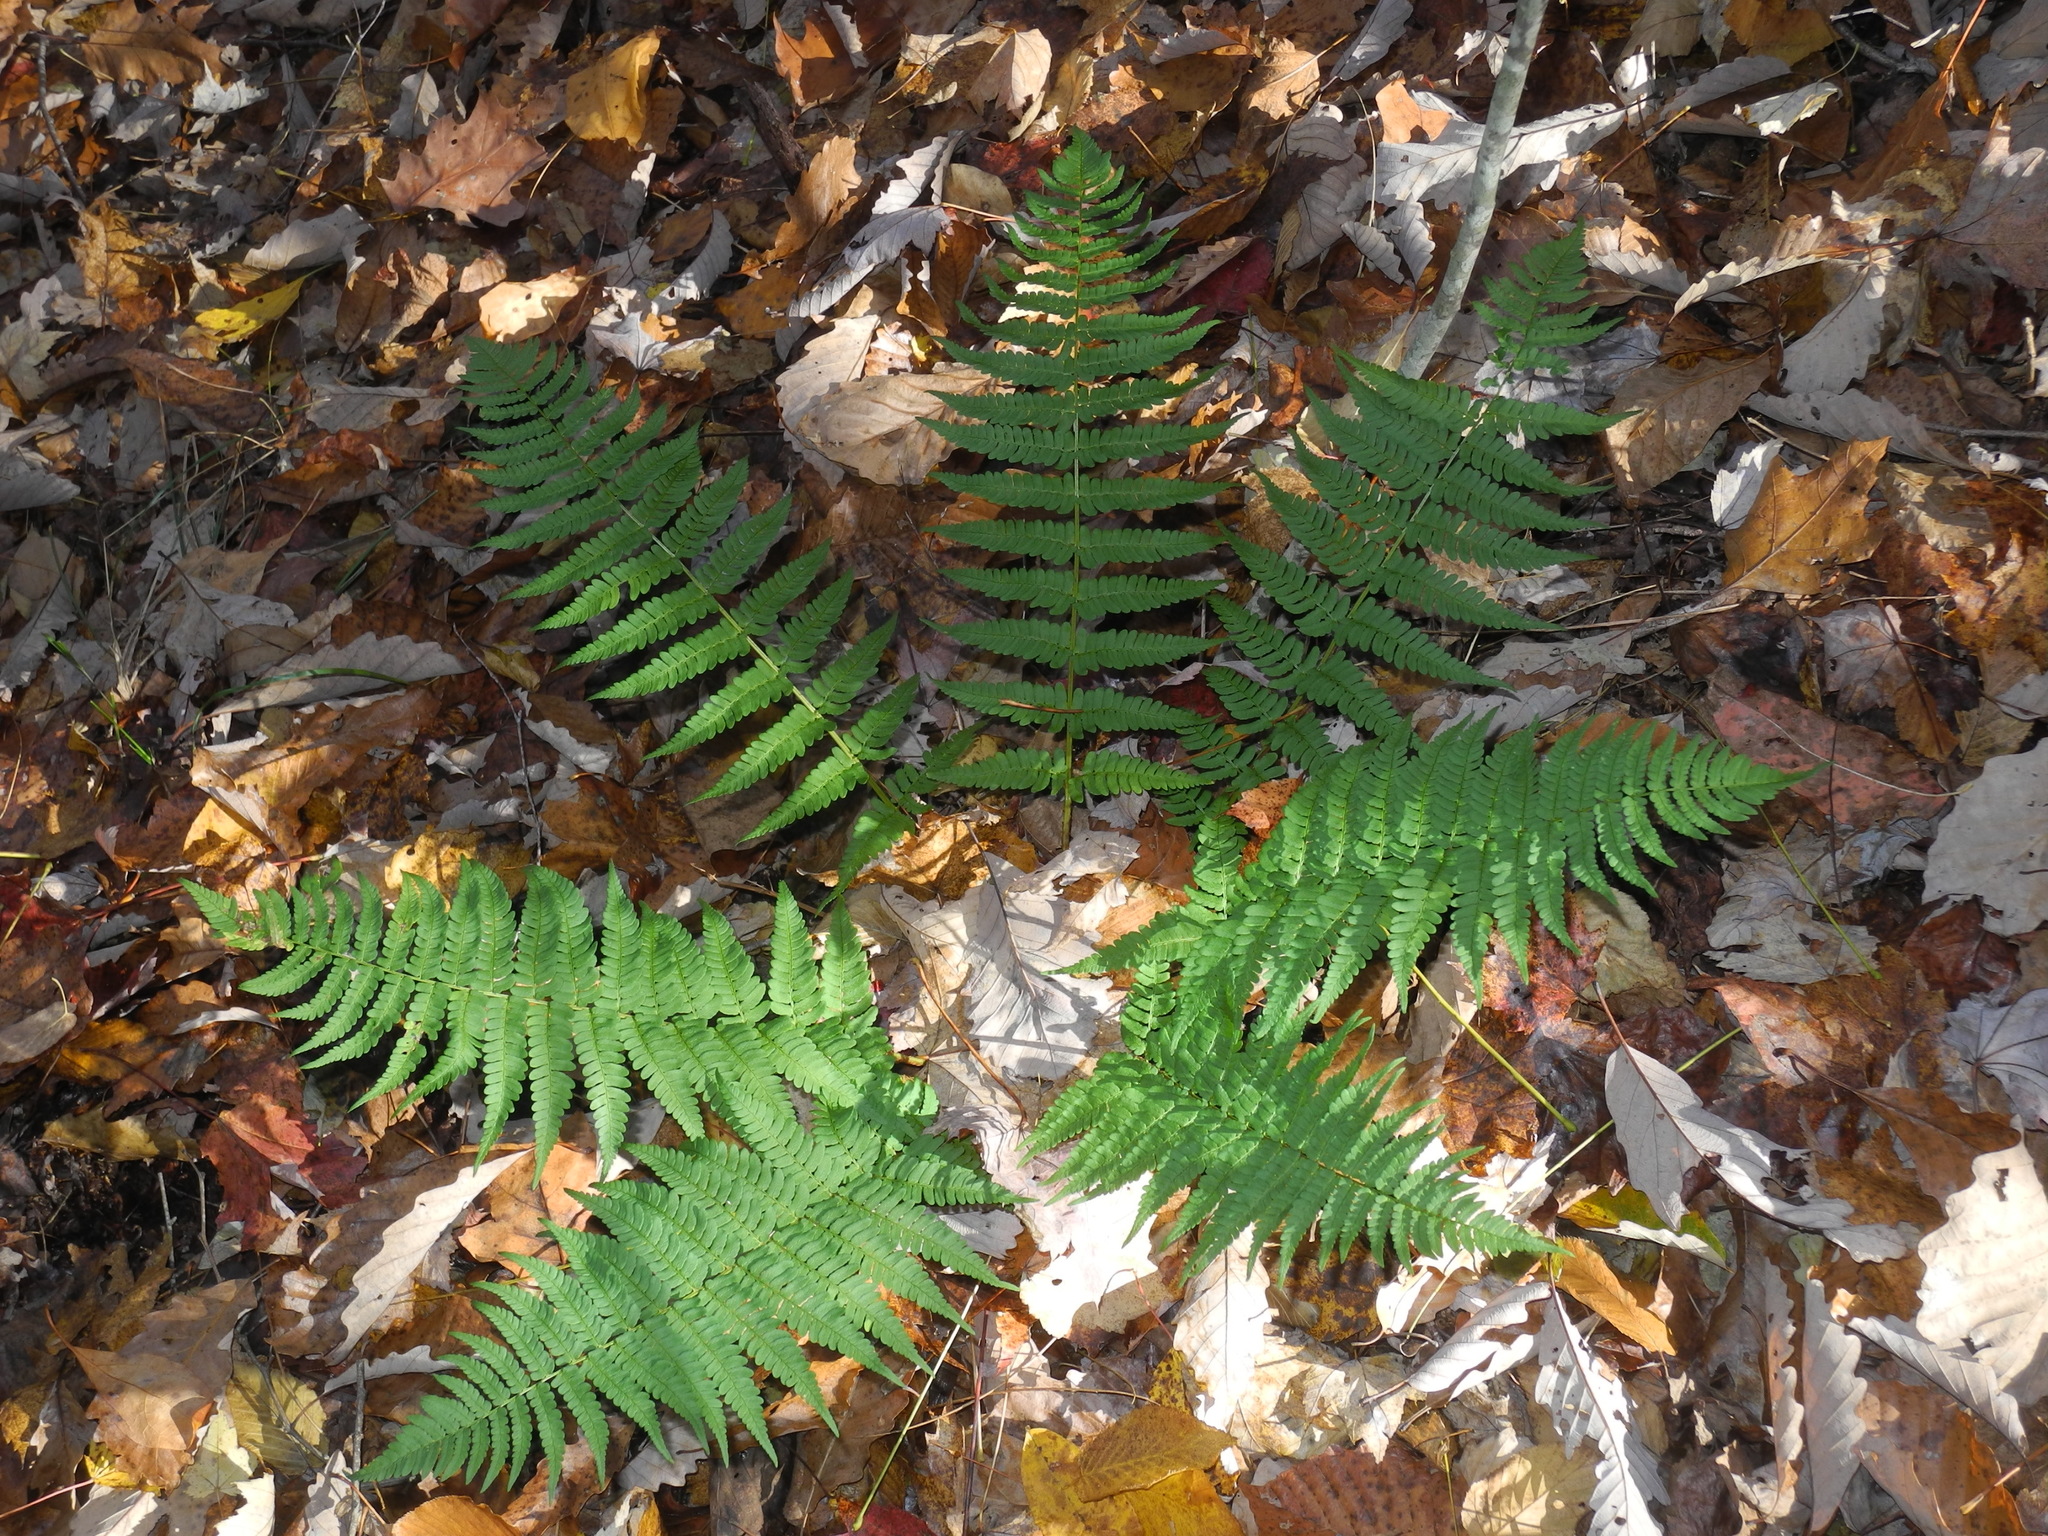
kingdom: Plantae
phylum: Tracheophyta
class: Polypodiopsida
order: Polypodiales
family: Dryopteridaceae
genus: Dryopteris
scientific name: Dryopteris marginalis
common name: Marginal wood fern
